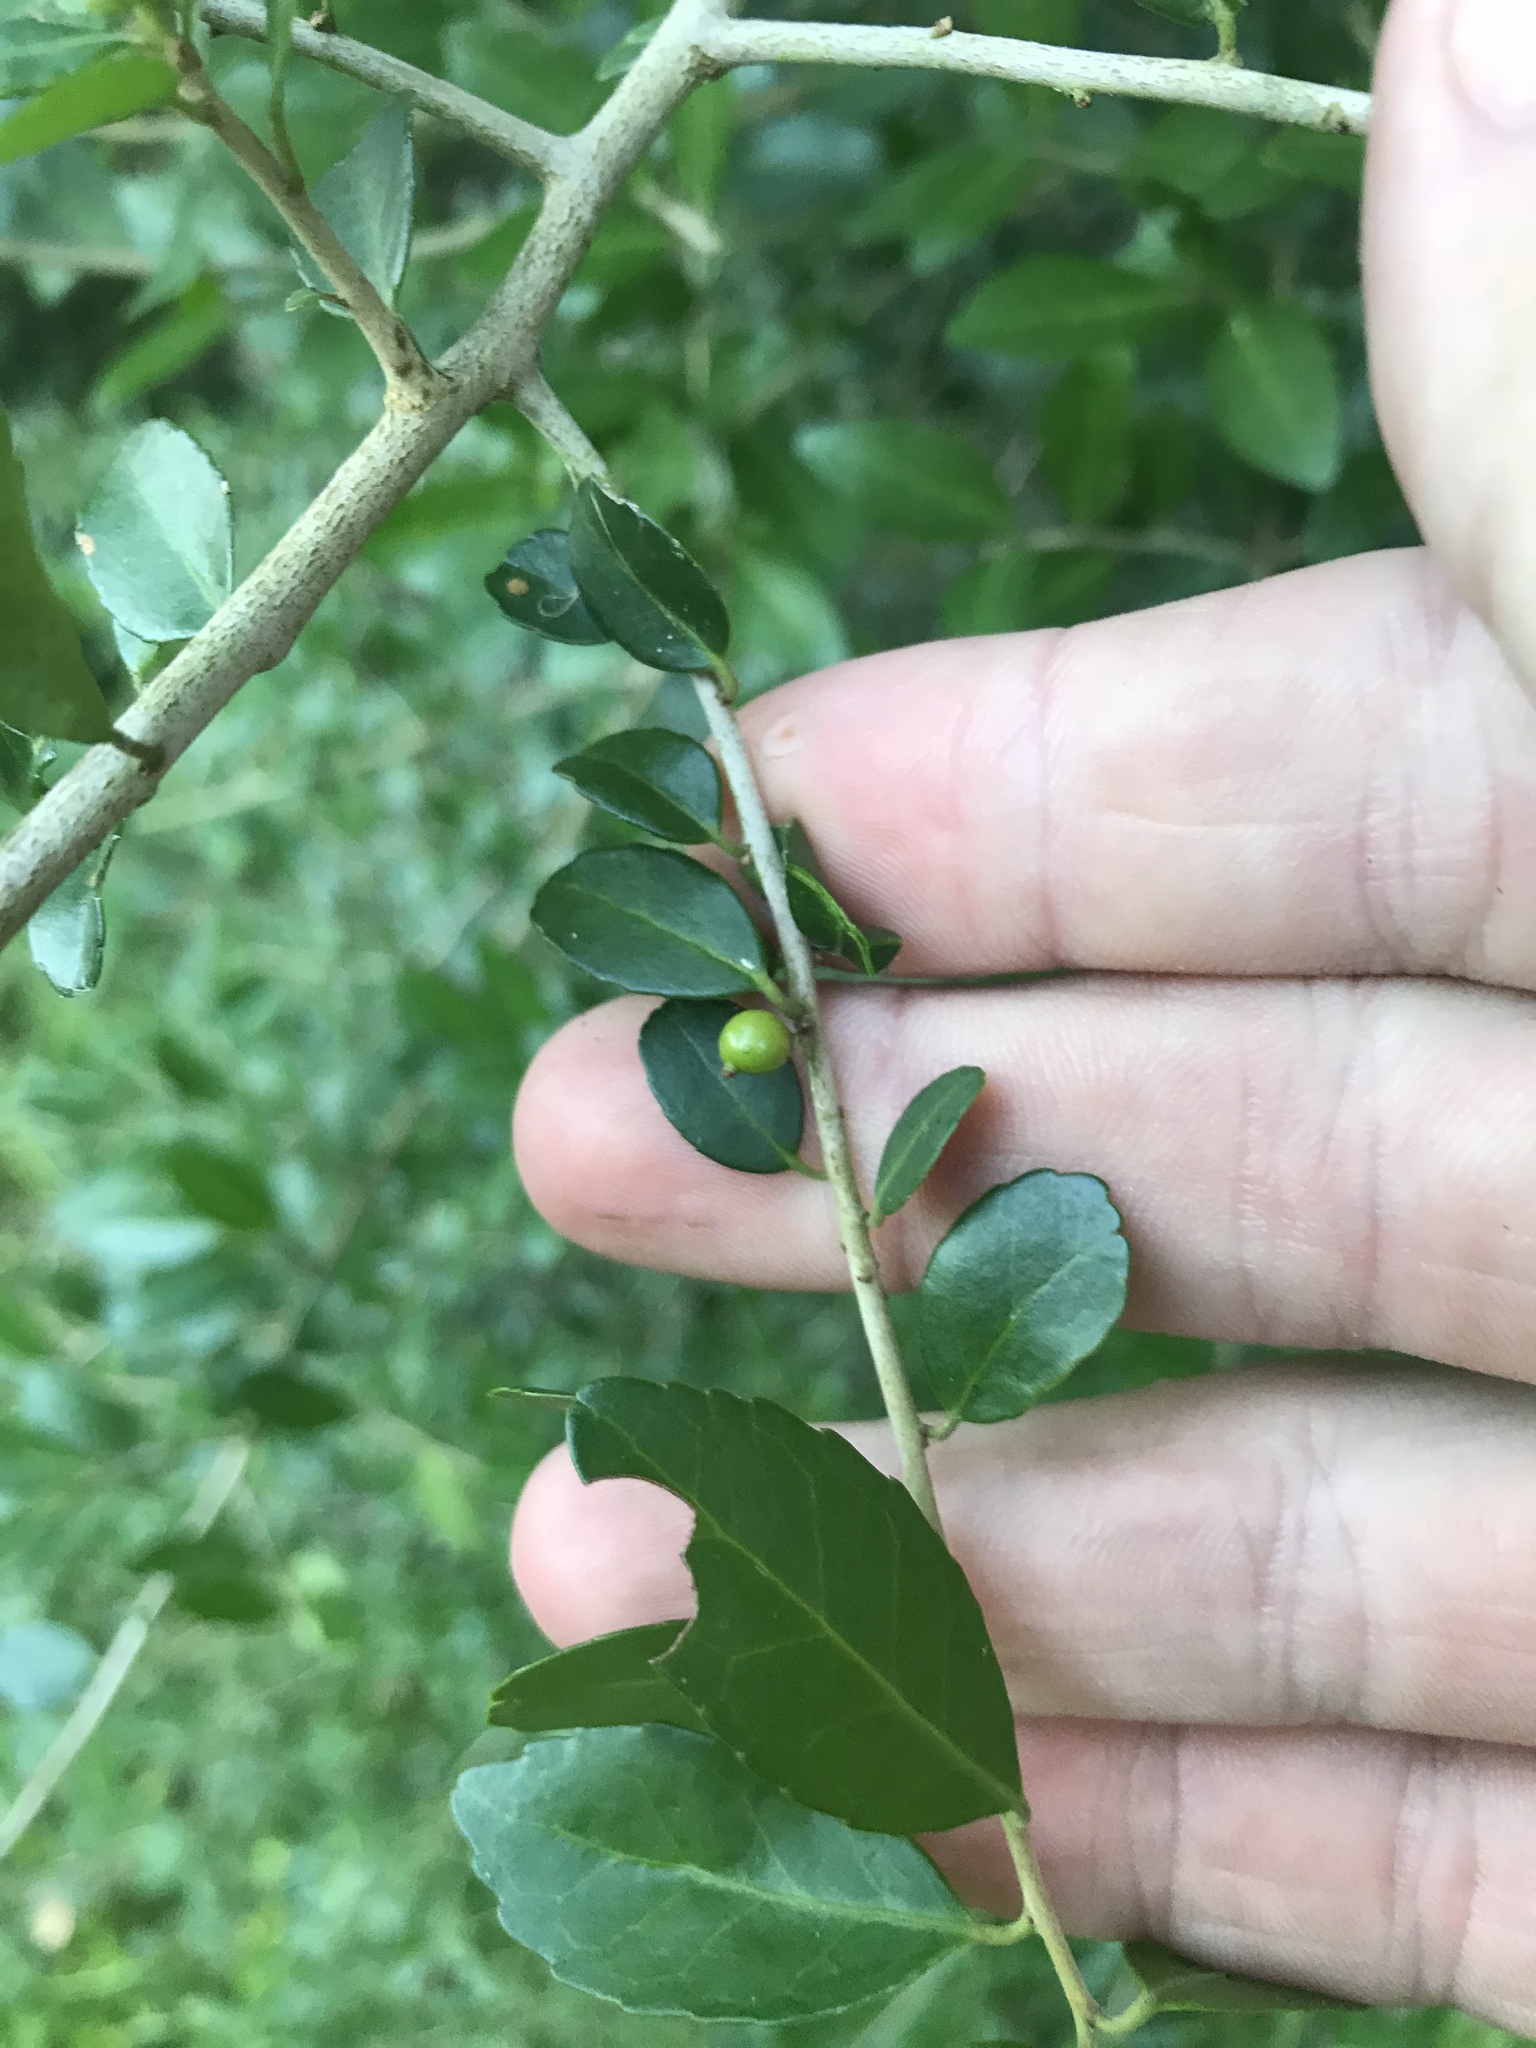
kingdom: Plantae
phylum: Tracheophyta
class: Magnoliopsida
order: Aquifoliales
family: Aquifoliaceae
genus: Ilex
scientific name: Ilex vomitoria
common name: Yaupon holly
